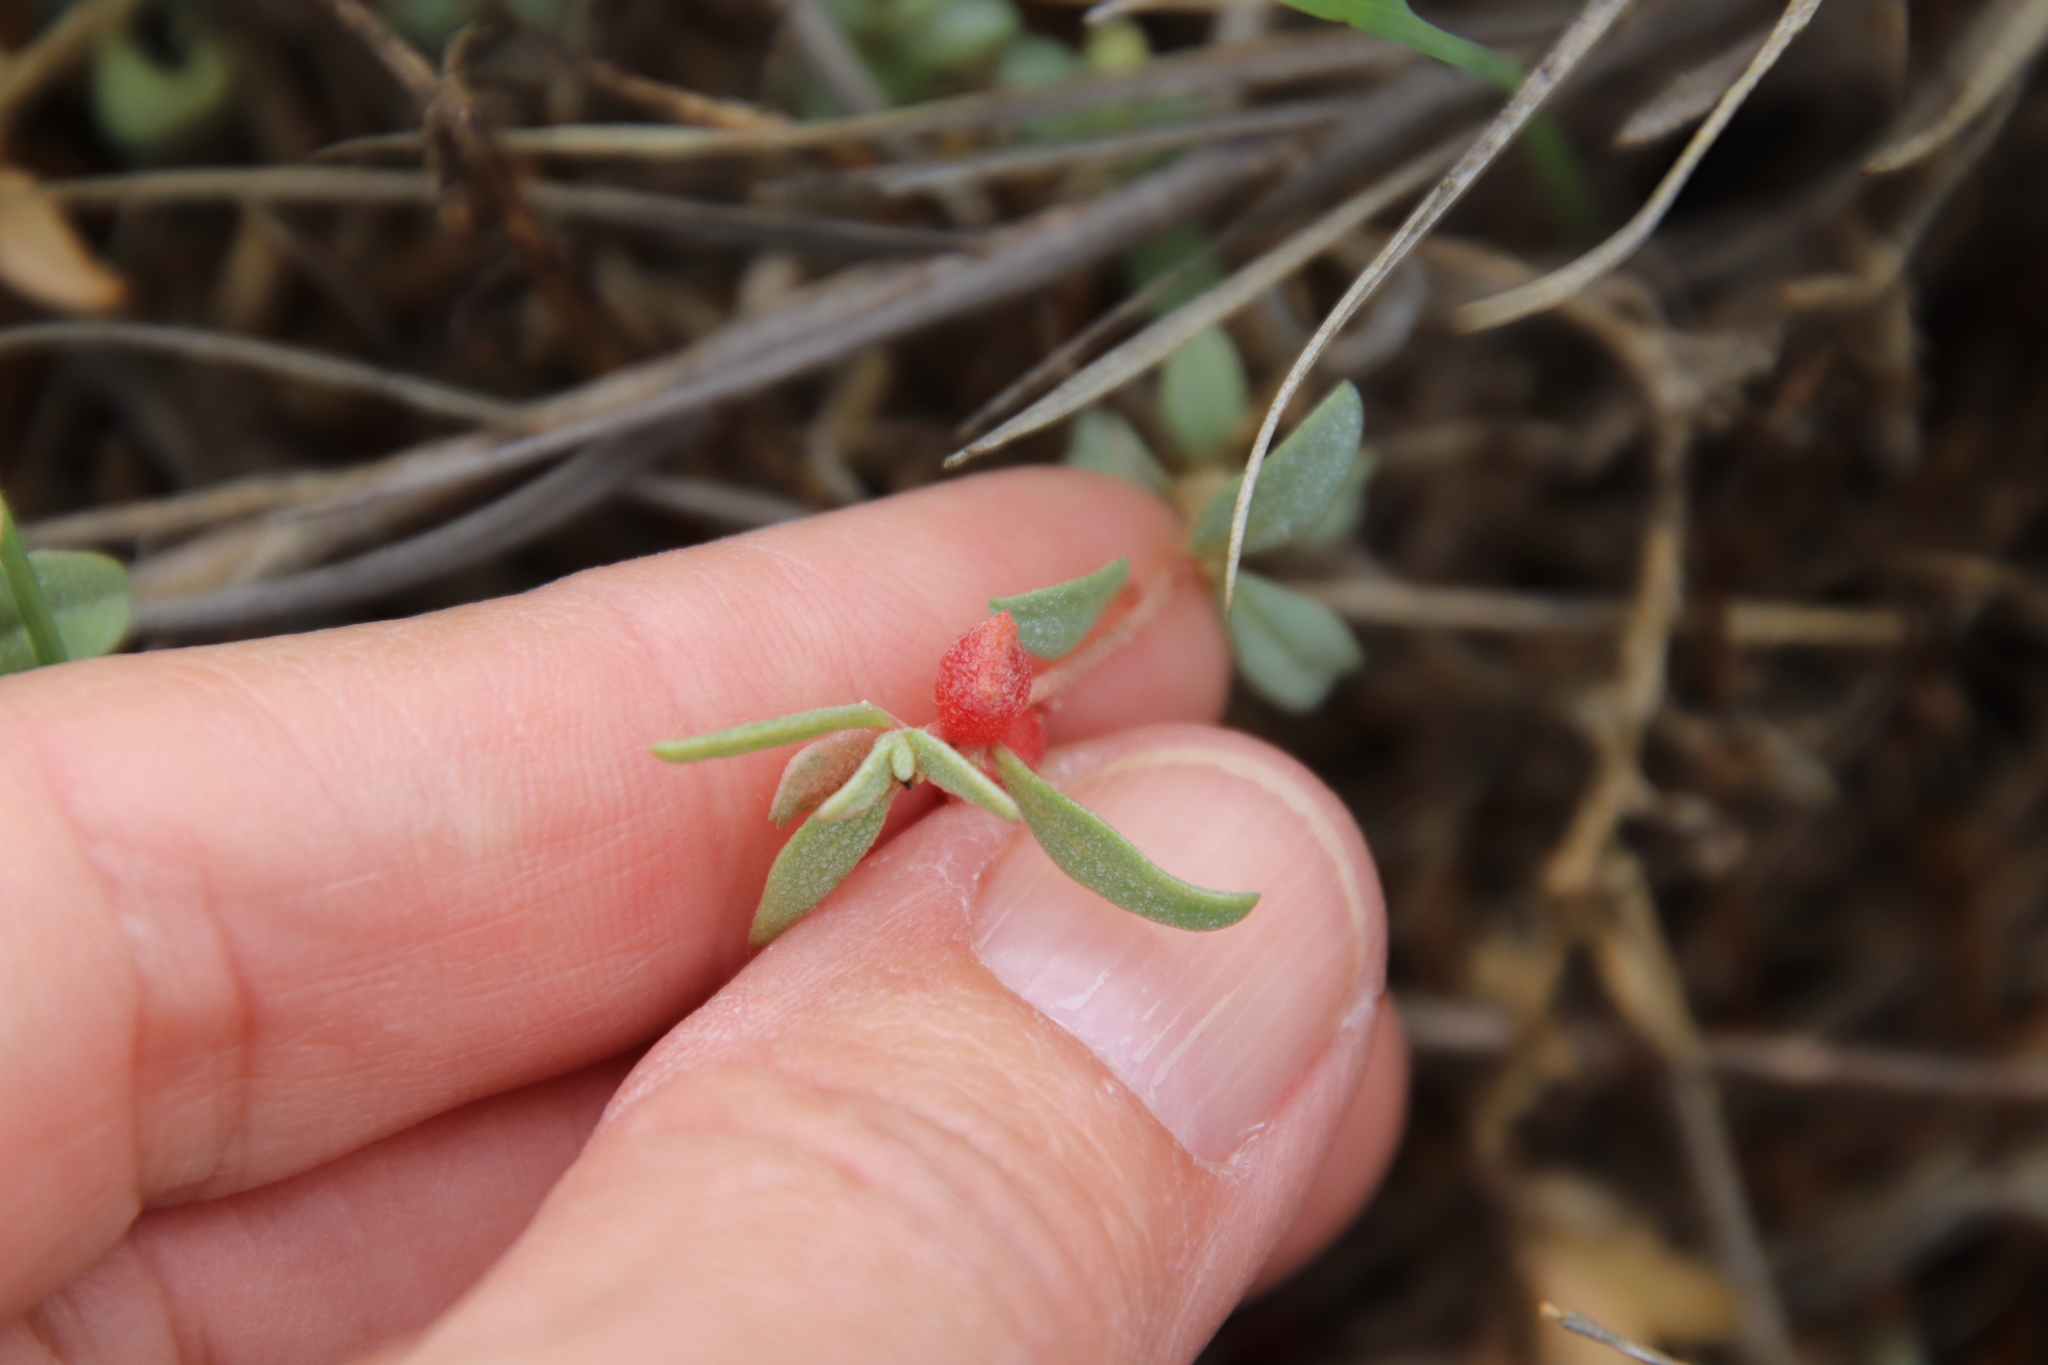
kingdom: Plantae
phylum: Tracheophyta
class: Magnoliopsida
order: Caryophyllales
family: Amaranthaceae
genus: Atriplex
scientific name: Atriplex semibaccata
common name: Australian saltbush
